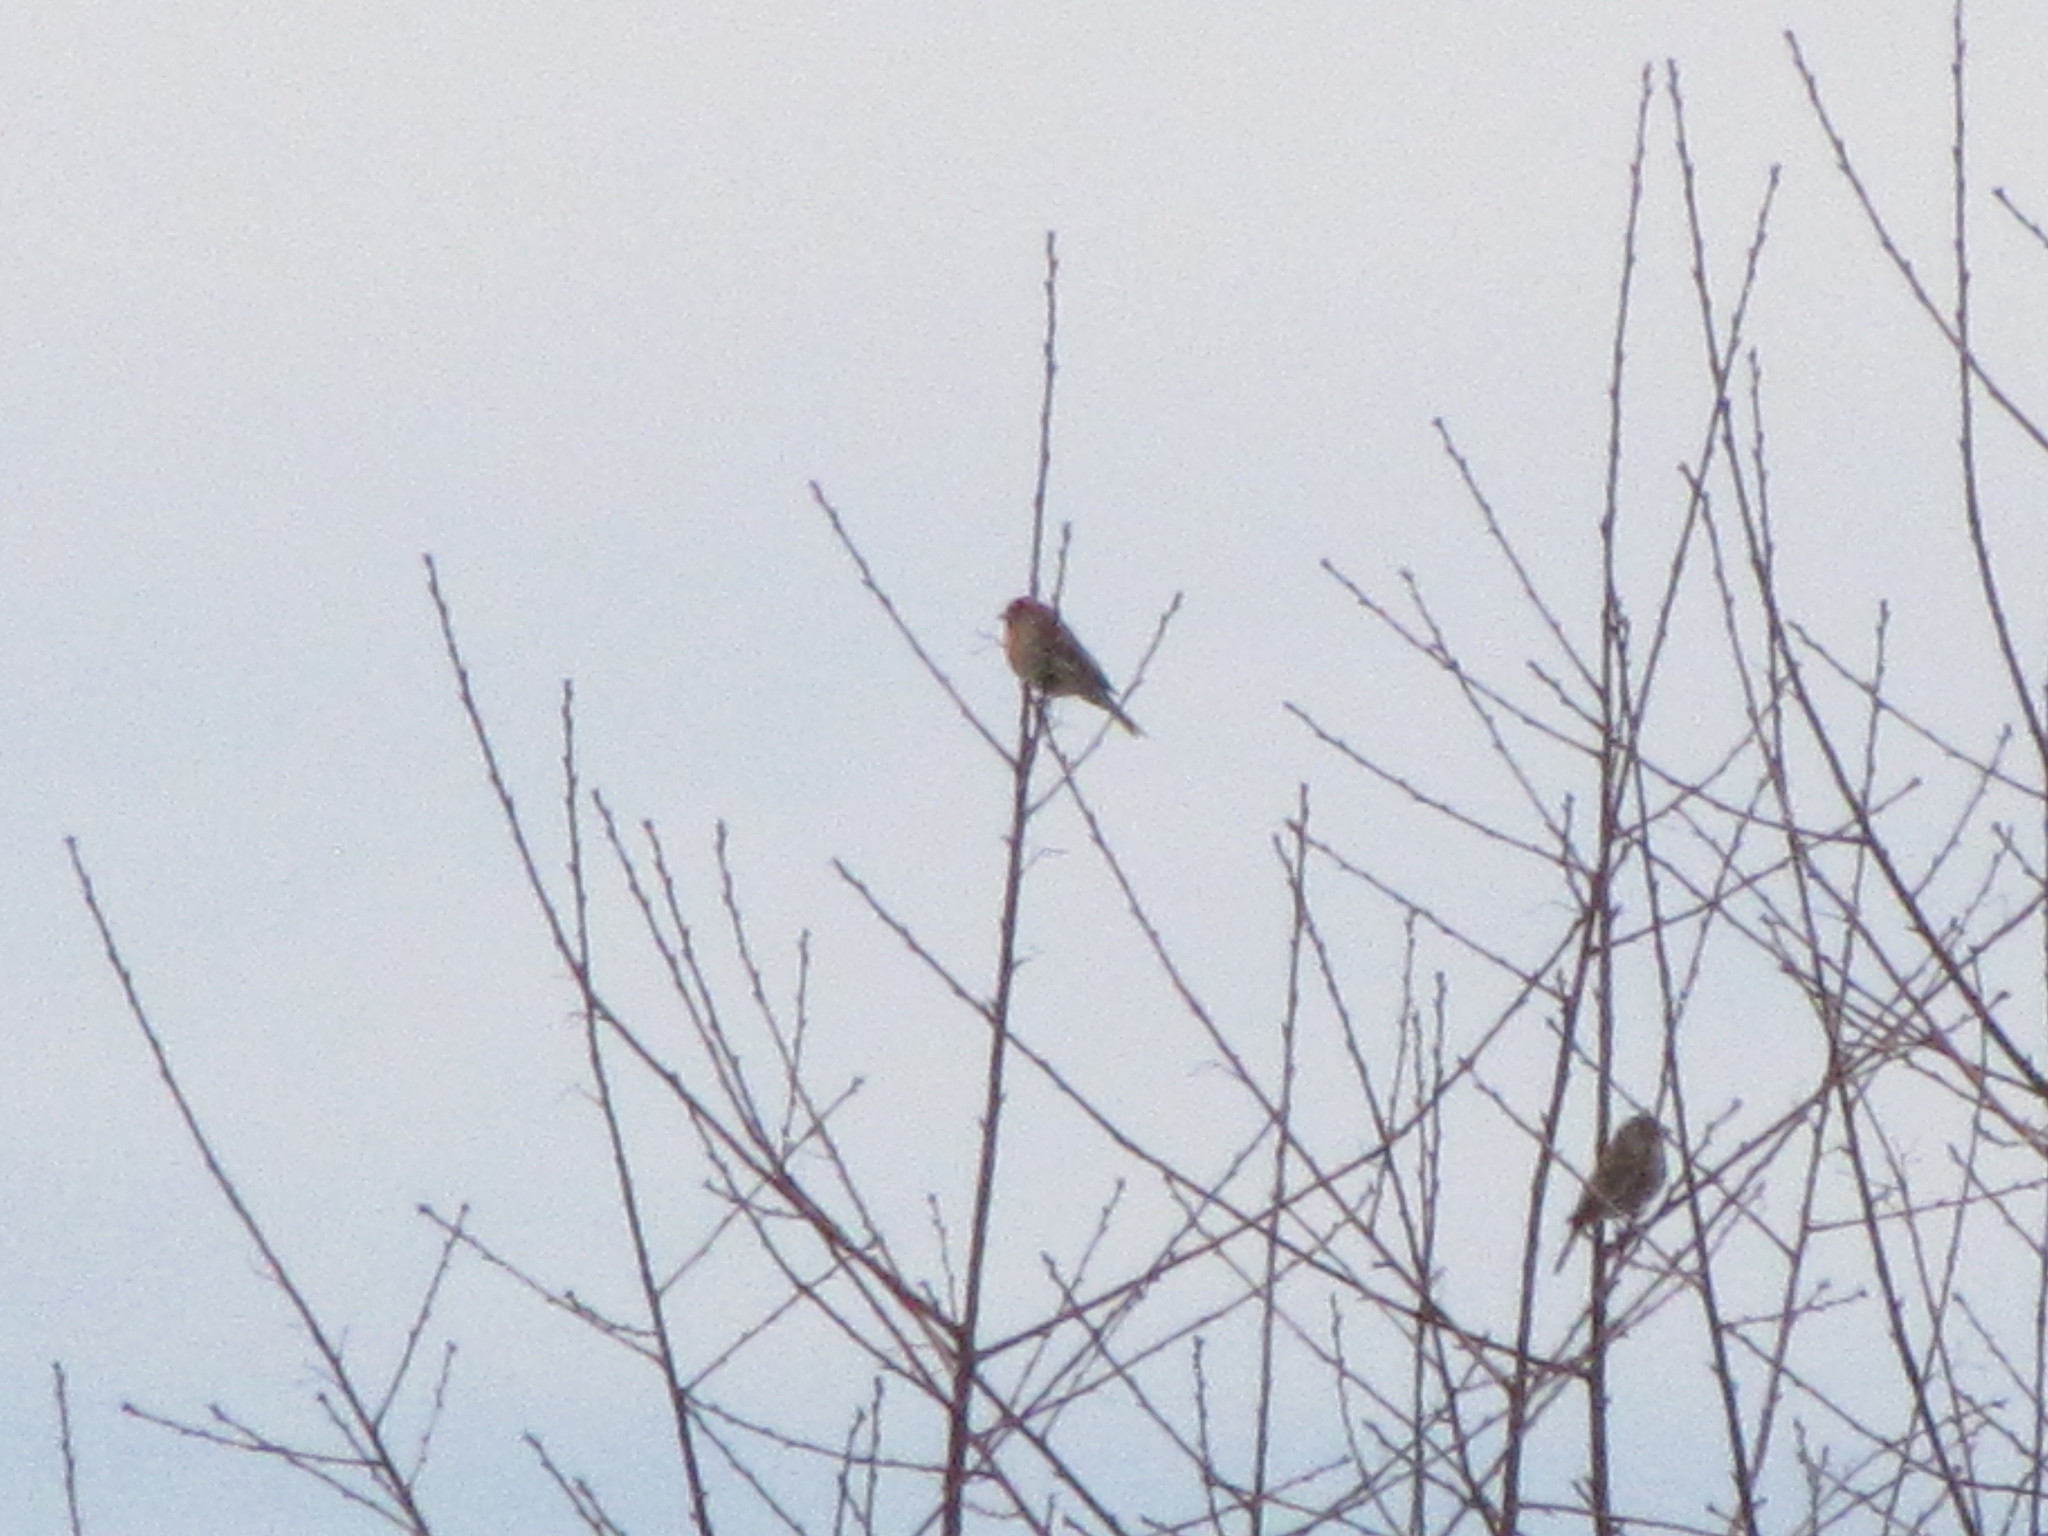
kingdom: Animalia
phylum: Chordata
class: Aves
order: Passeriformes
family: Fringillidae
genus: Haemorhous
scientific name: Haemorhous mexicanus
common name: House finch
